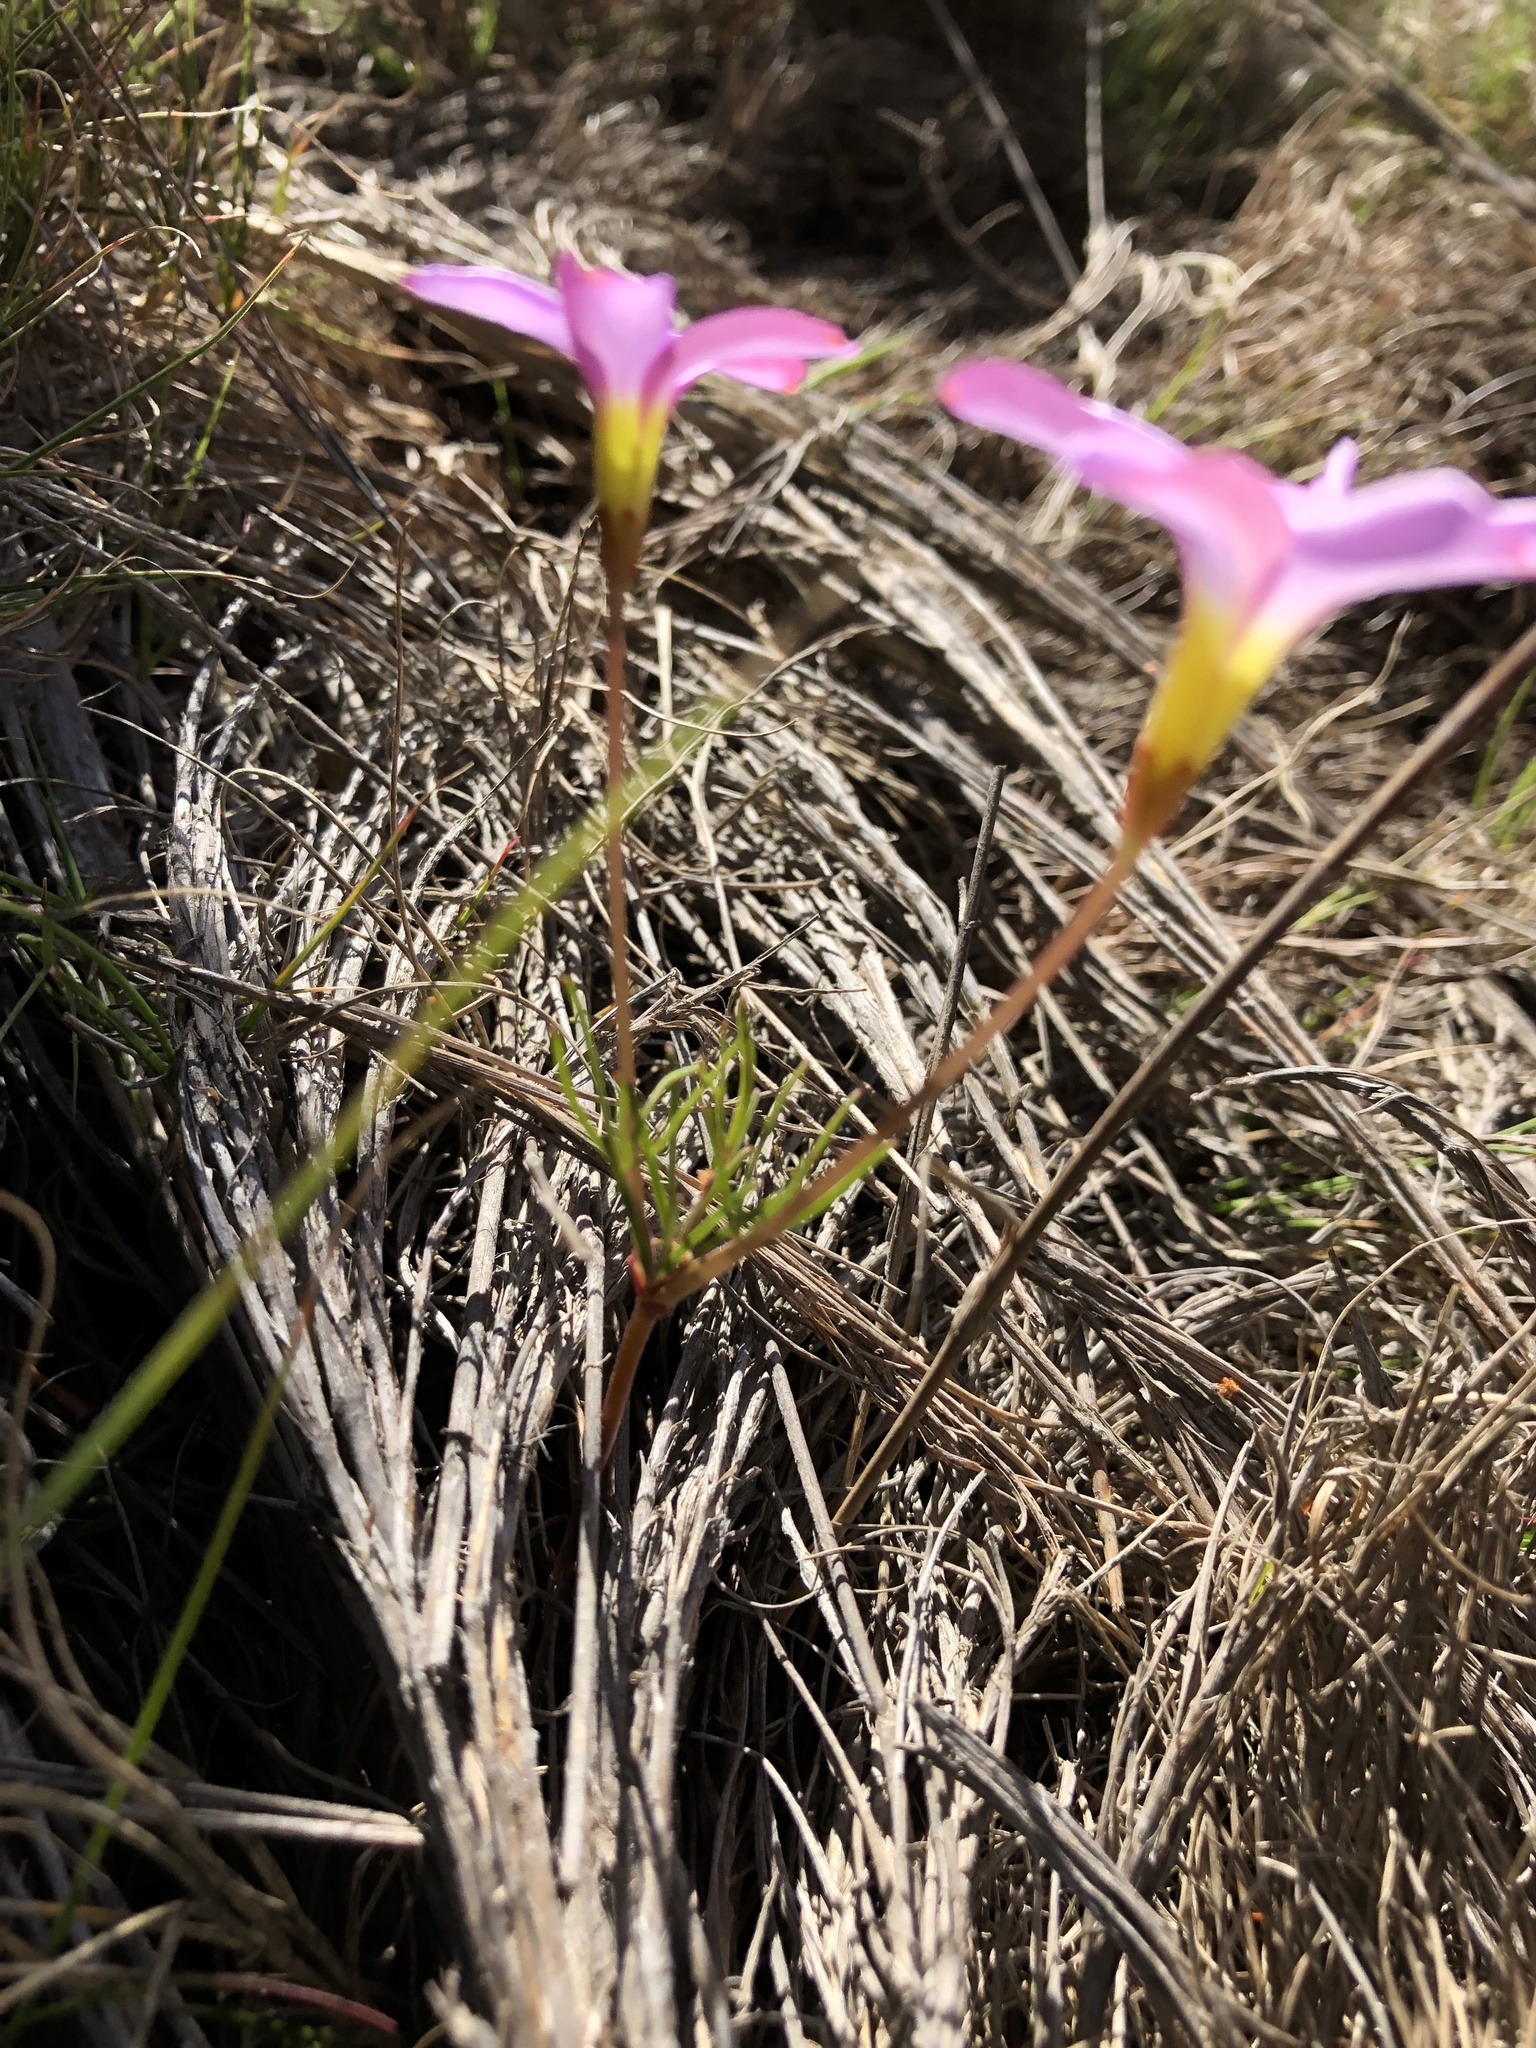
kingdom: Plantae
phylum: Tracheophyta
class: Magnoliopsida
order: Oxalidales
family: Oxalidaceae
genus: Oxalis
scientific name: Oxalis polyphylla
